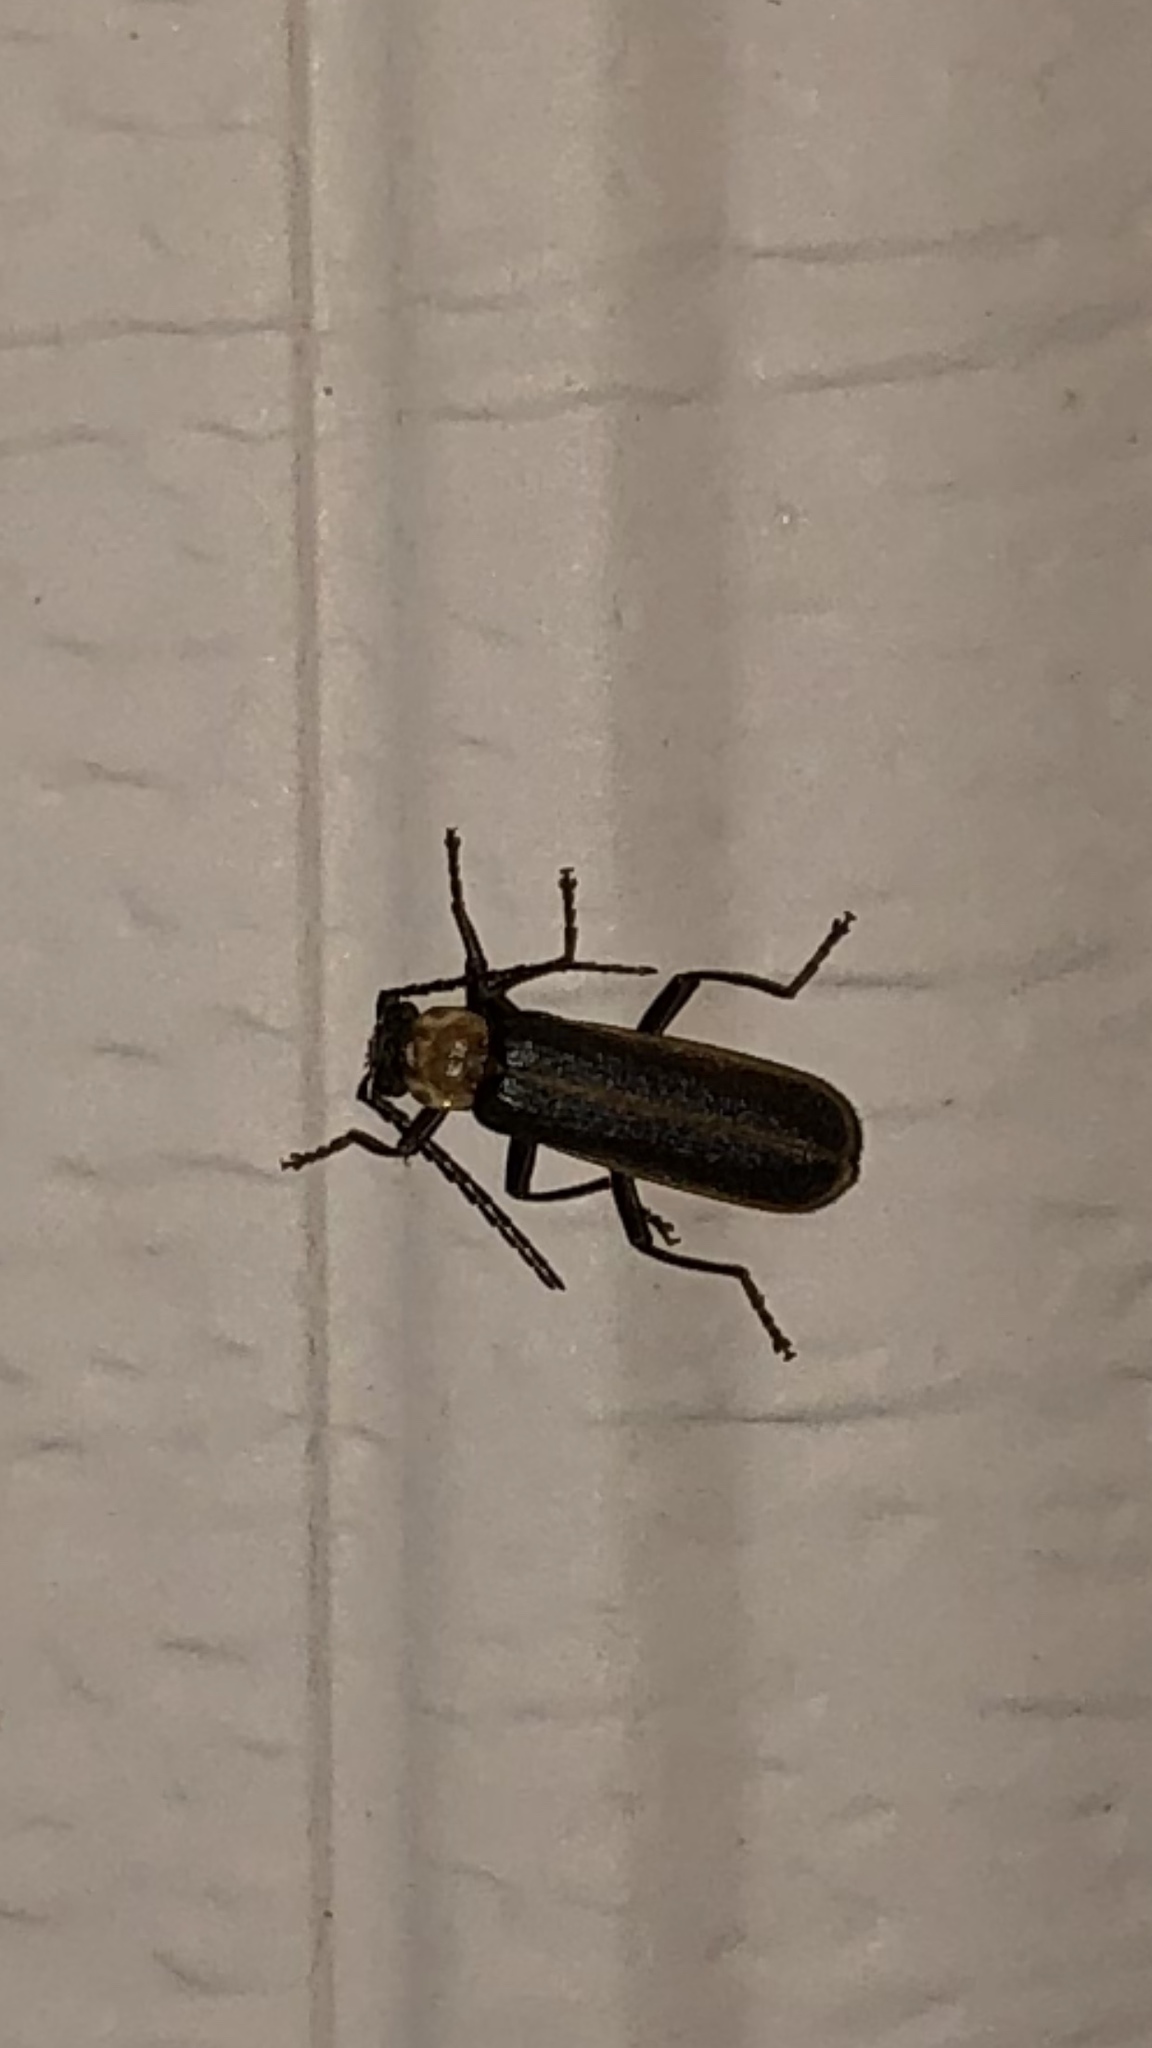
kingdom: Animalia
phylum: Arthropoda
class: Insecta
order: Coleoptera
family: Cantharidae
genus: Podabrus
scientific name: Podabrus flavicollis
